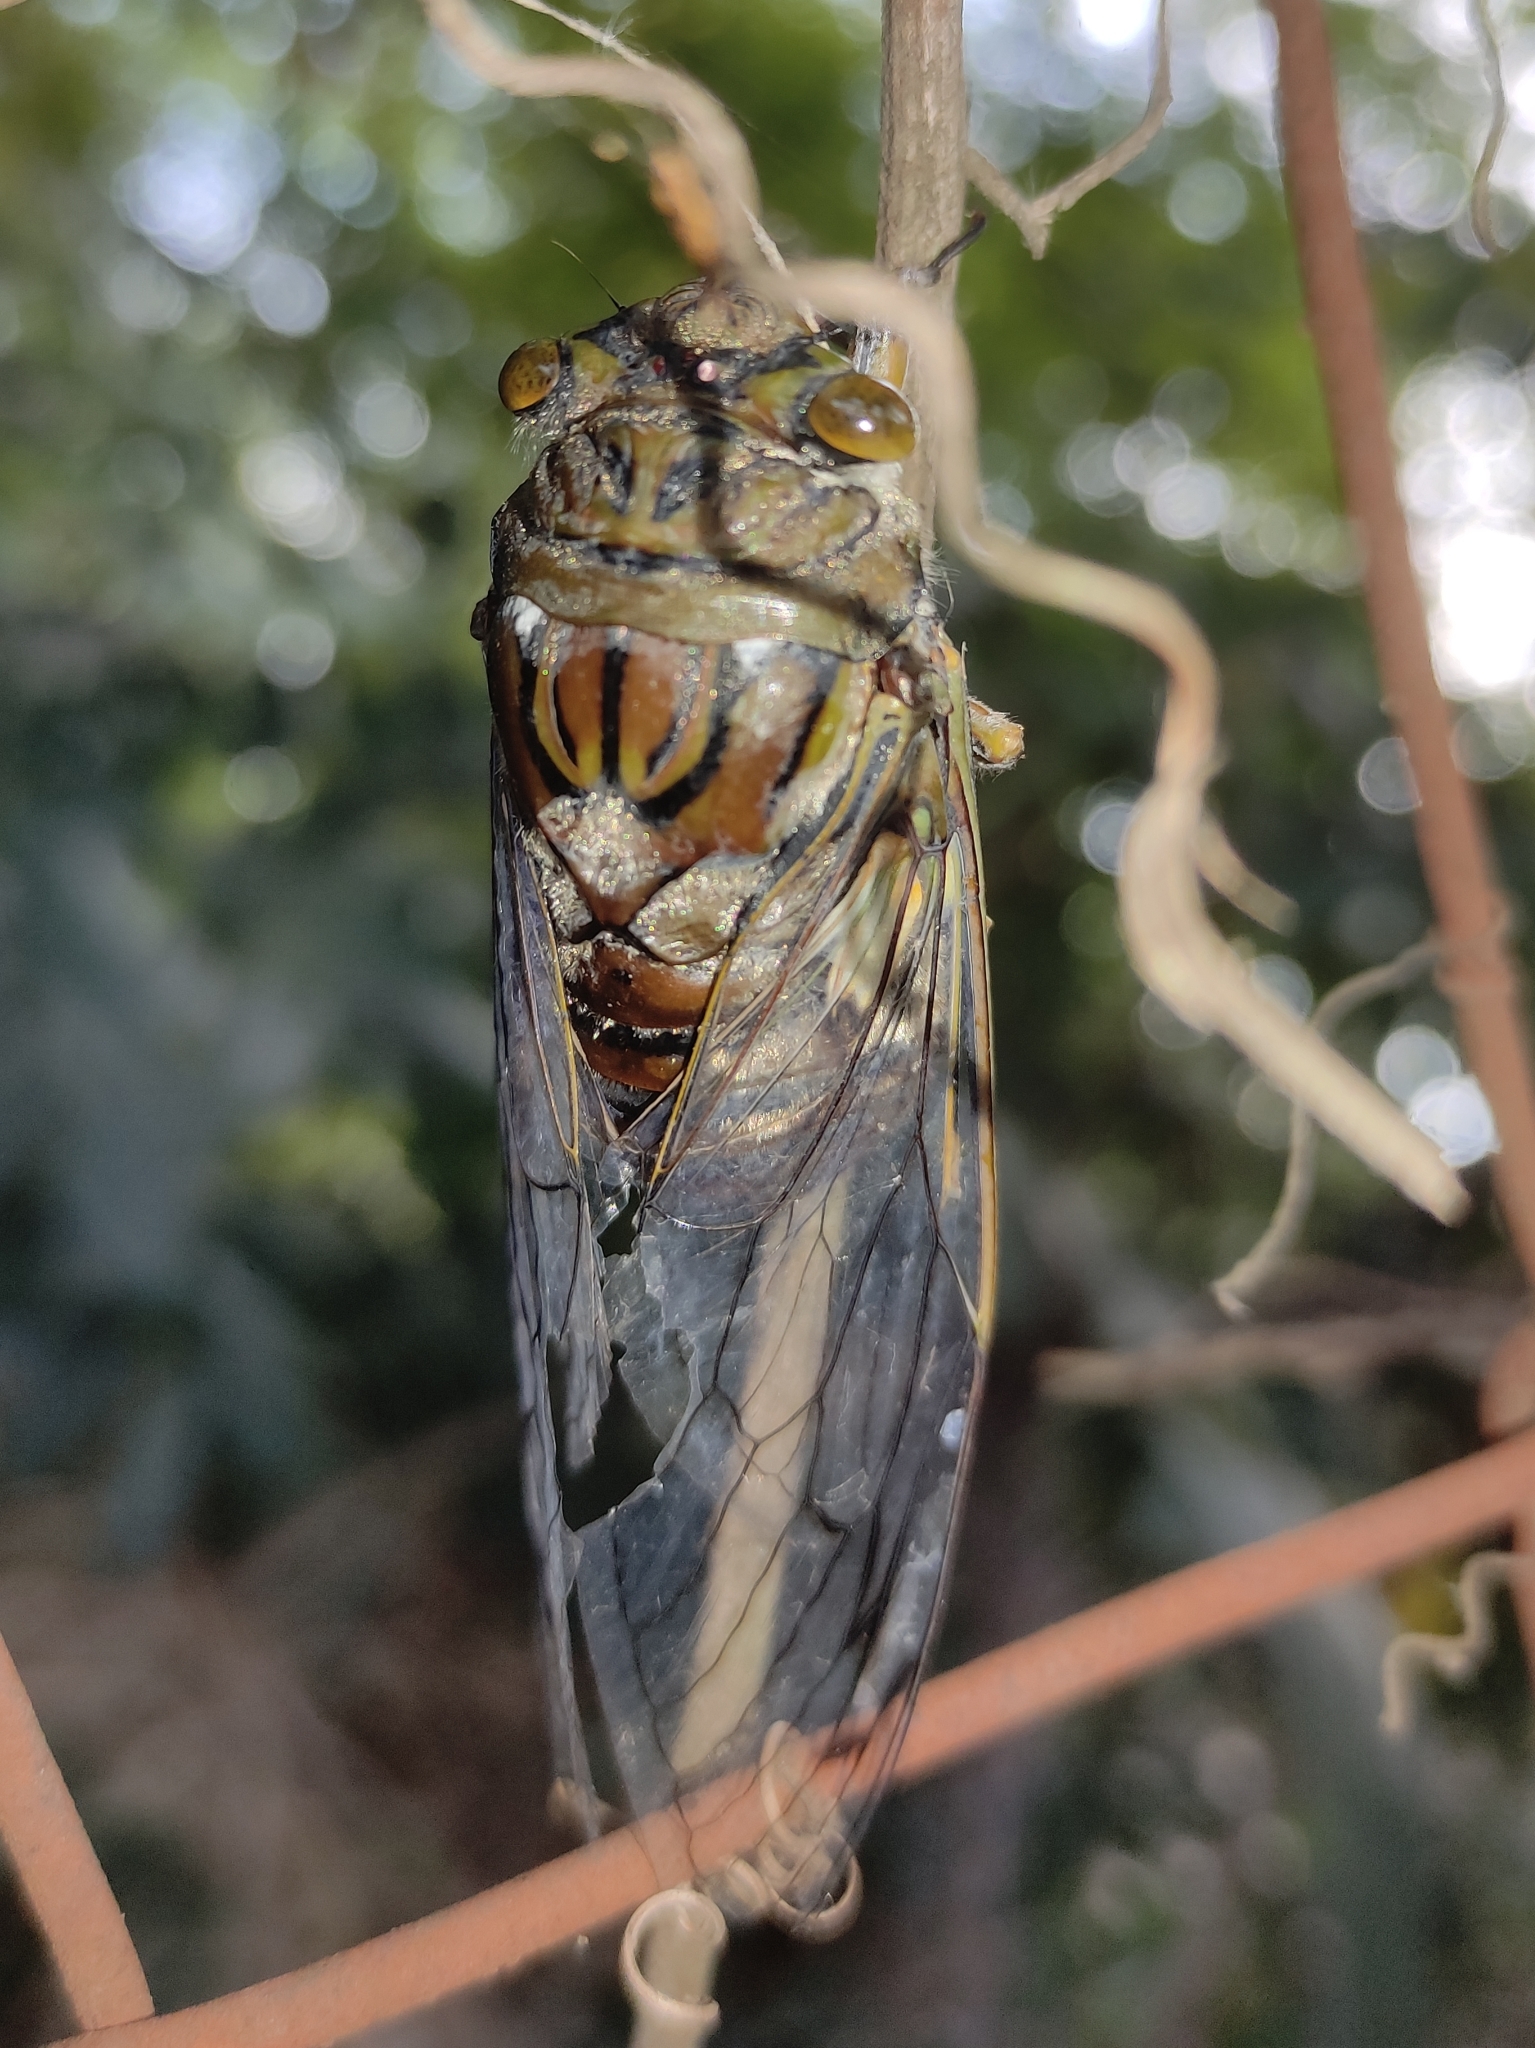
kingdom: Animalia
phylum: Arthropoda
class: Insecta
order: Hemiptera
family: Cicadidae
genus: Quesada
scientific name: Quesada gigas
